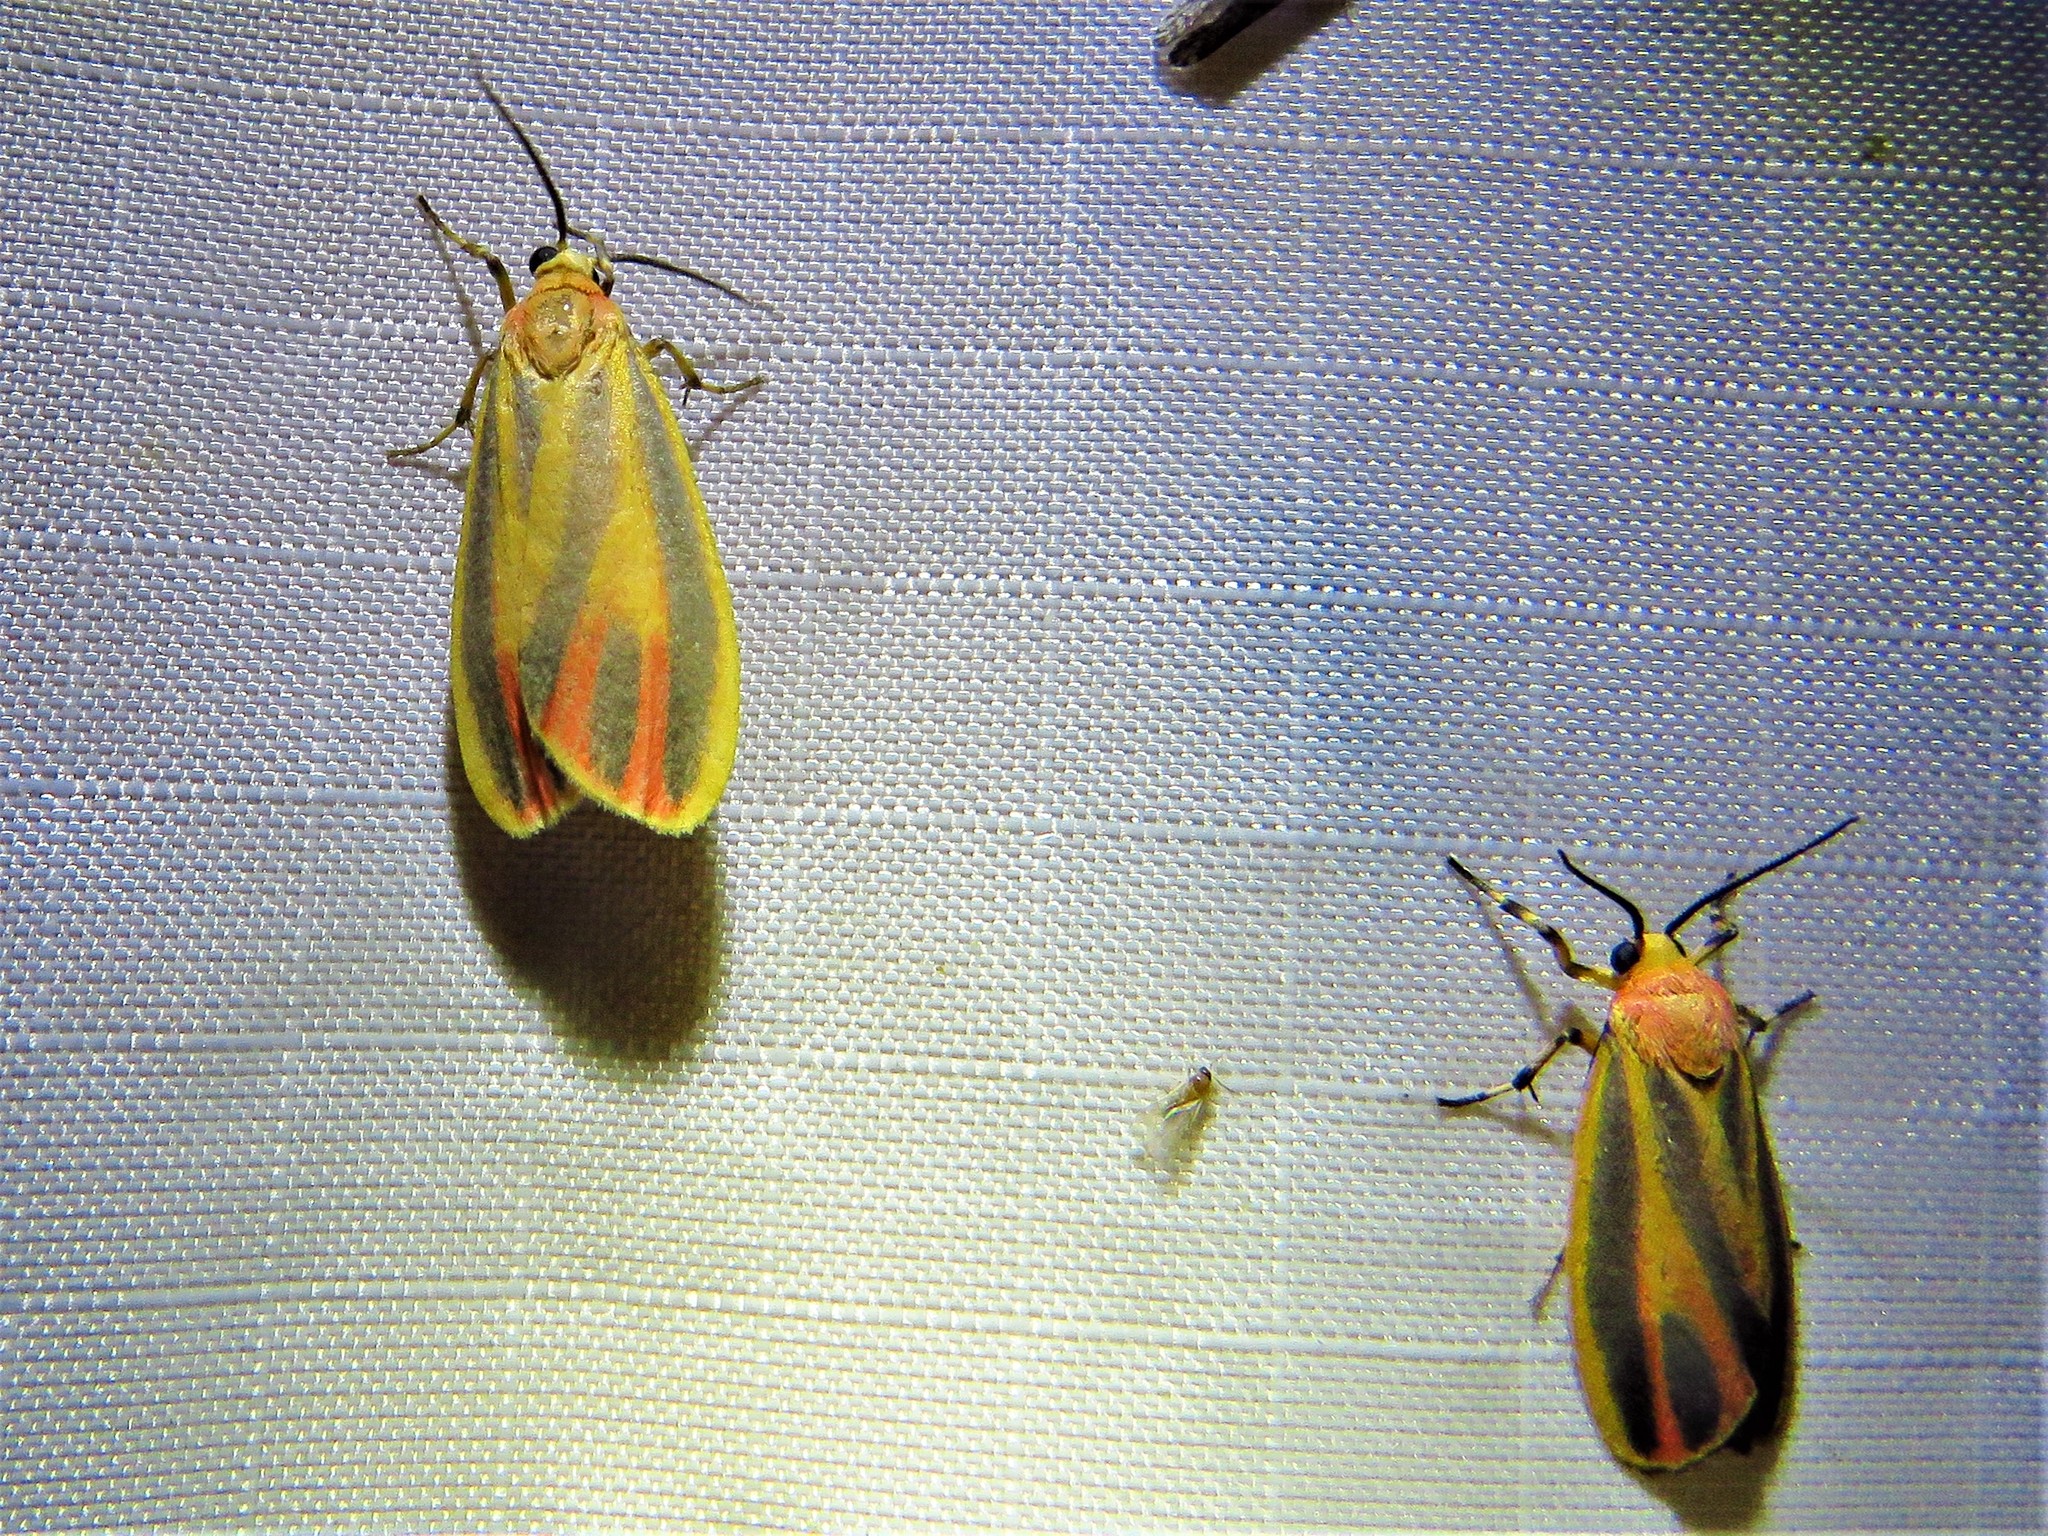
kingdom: Animalia
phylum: Arthropoda
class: Insecta
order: Lepidoptera
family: Erebidae
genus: Hypoprepia
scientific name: Hypoprepia fucosa
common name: Painted lichen moth
